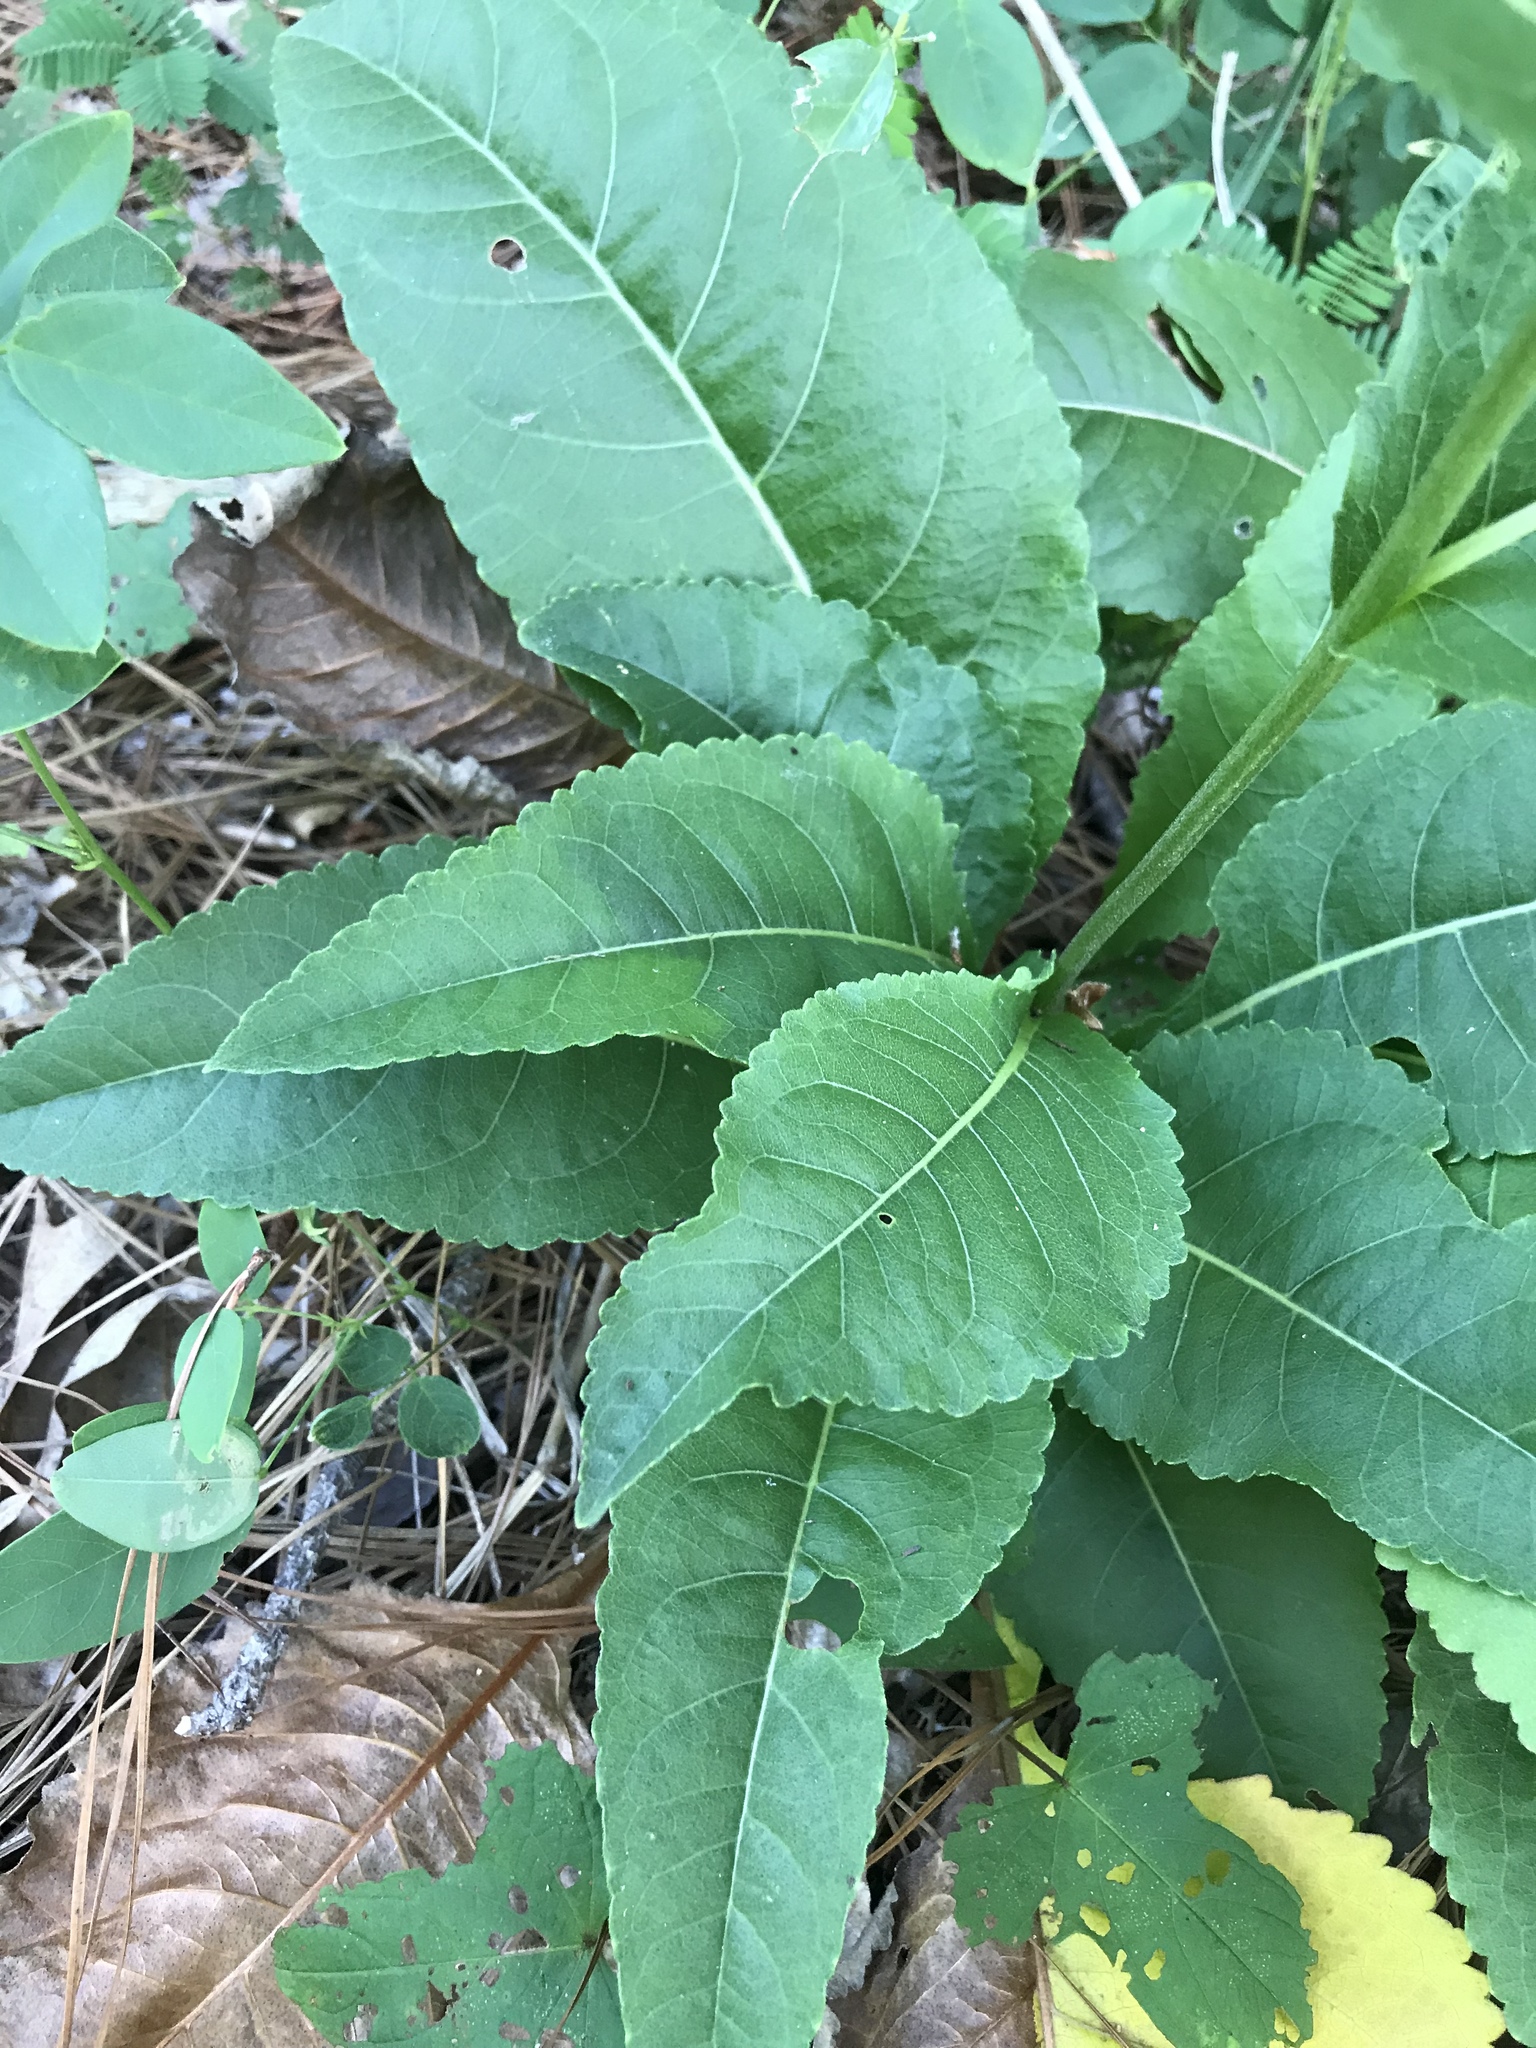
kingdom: Plantae
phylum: Tracheophyta
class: Magnoliopsida
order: Asterales
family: Asteraceae
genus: Parthenium
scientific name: Parthenium integrifolium
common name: American feverfew
